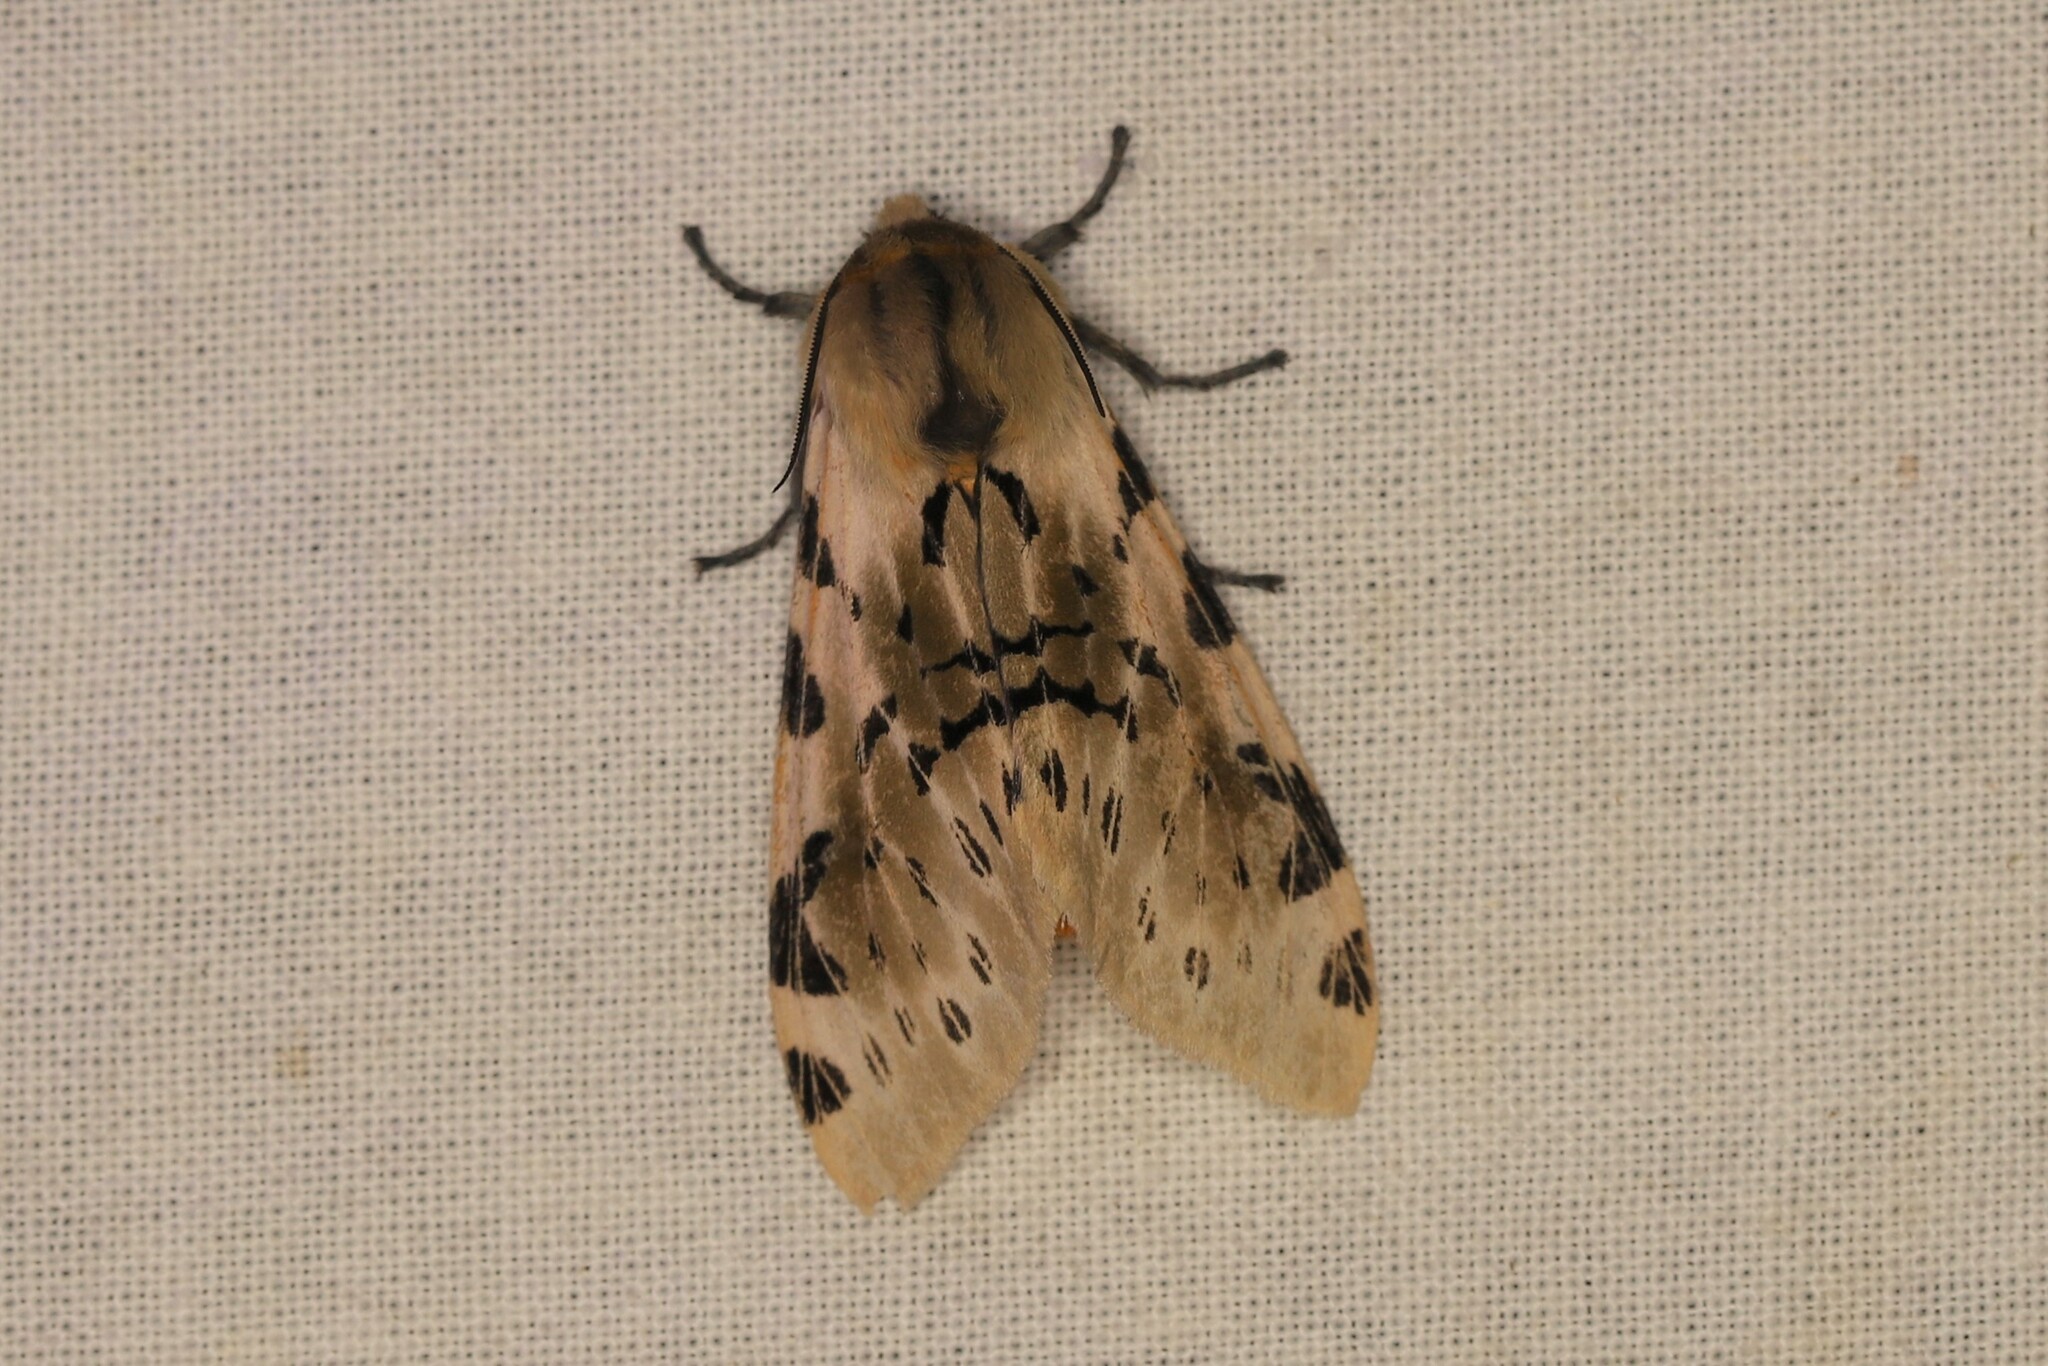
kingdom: Animalia
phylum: Arthropoda
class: Insecta
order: Lepidoptera
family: Erebidae
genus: Hypercompe
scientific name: Hypercompe nemophila
